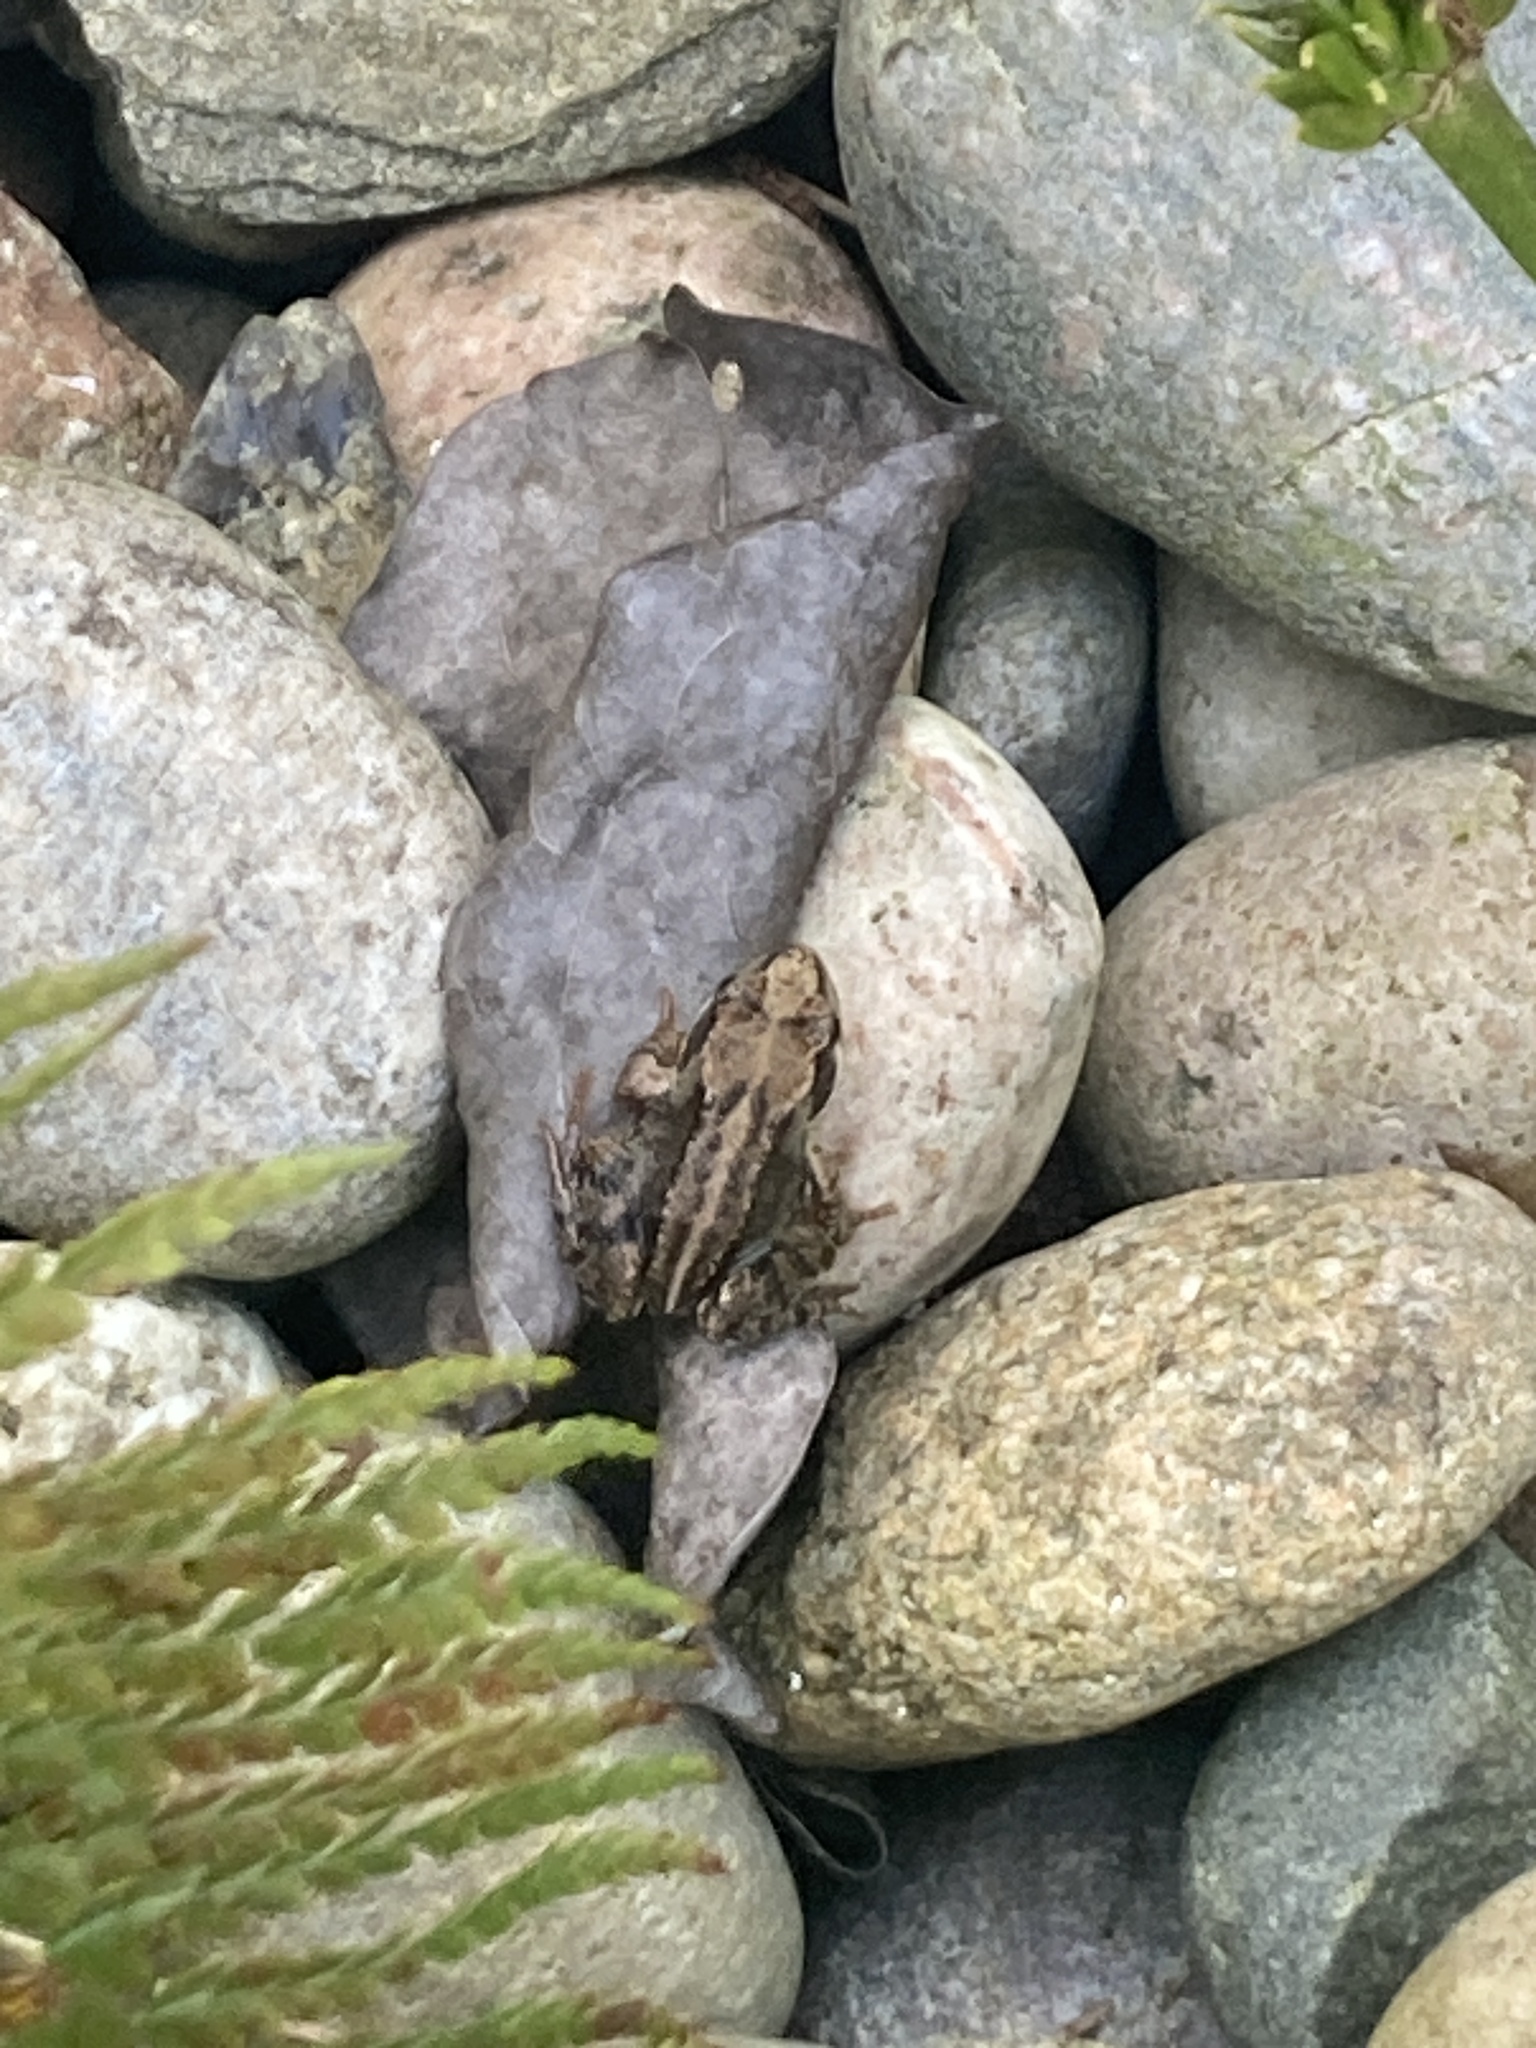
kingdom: Animalia
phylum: Chordata
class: Amphibia
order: Anura
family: Ranidae
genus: Rana
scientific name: Rana temporaria
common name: Common frog
